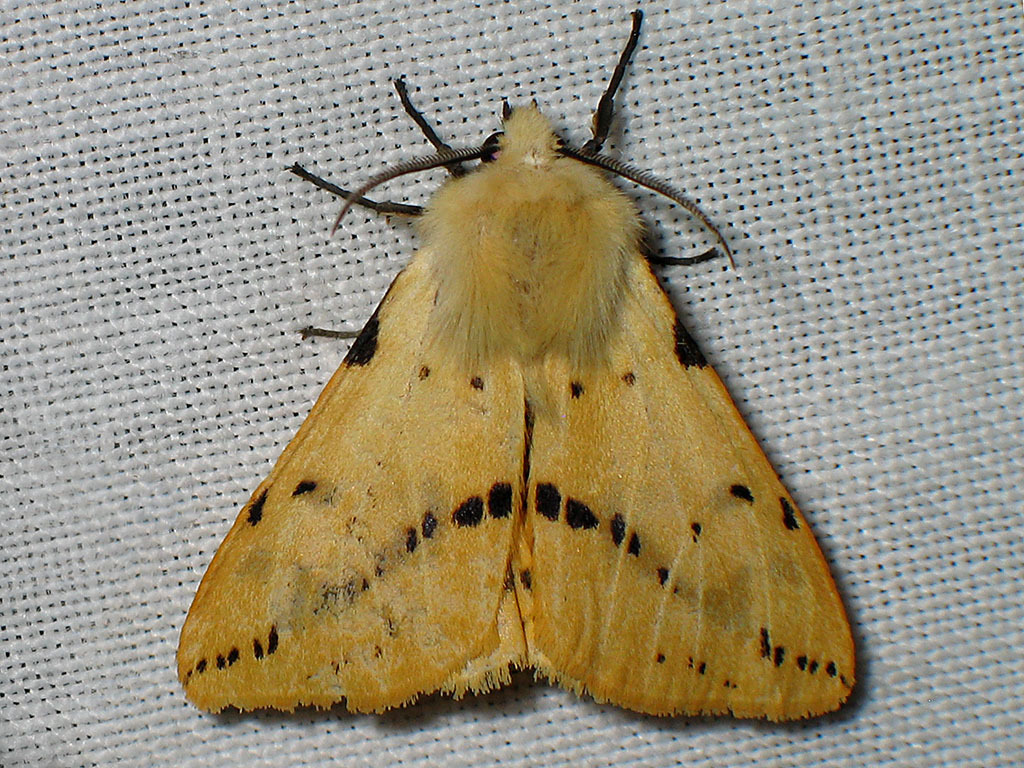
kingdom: Animalia
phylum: Arthropoda
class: Insecta
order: Lepidoptera
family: Erebidae
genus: Spilarctia
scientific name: Spilarctia lutea
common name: Buff ermine
